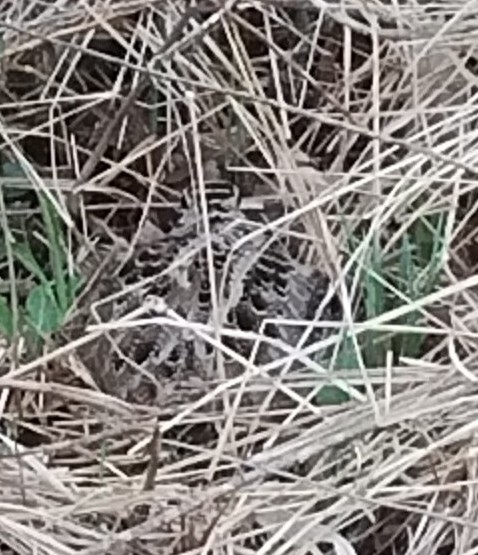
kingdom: Animalia
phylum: Chordata
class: Aves
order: Charadriiformes
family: Scolopacidae
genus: Scolopax
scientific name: Scolopax minor
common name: American woodcock
